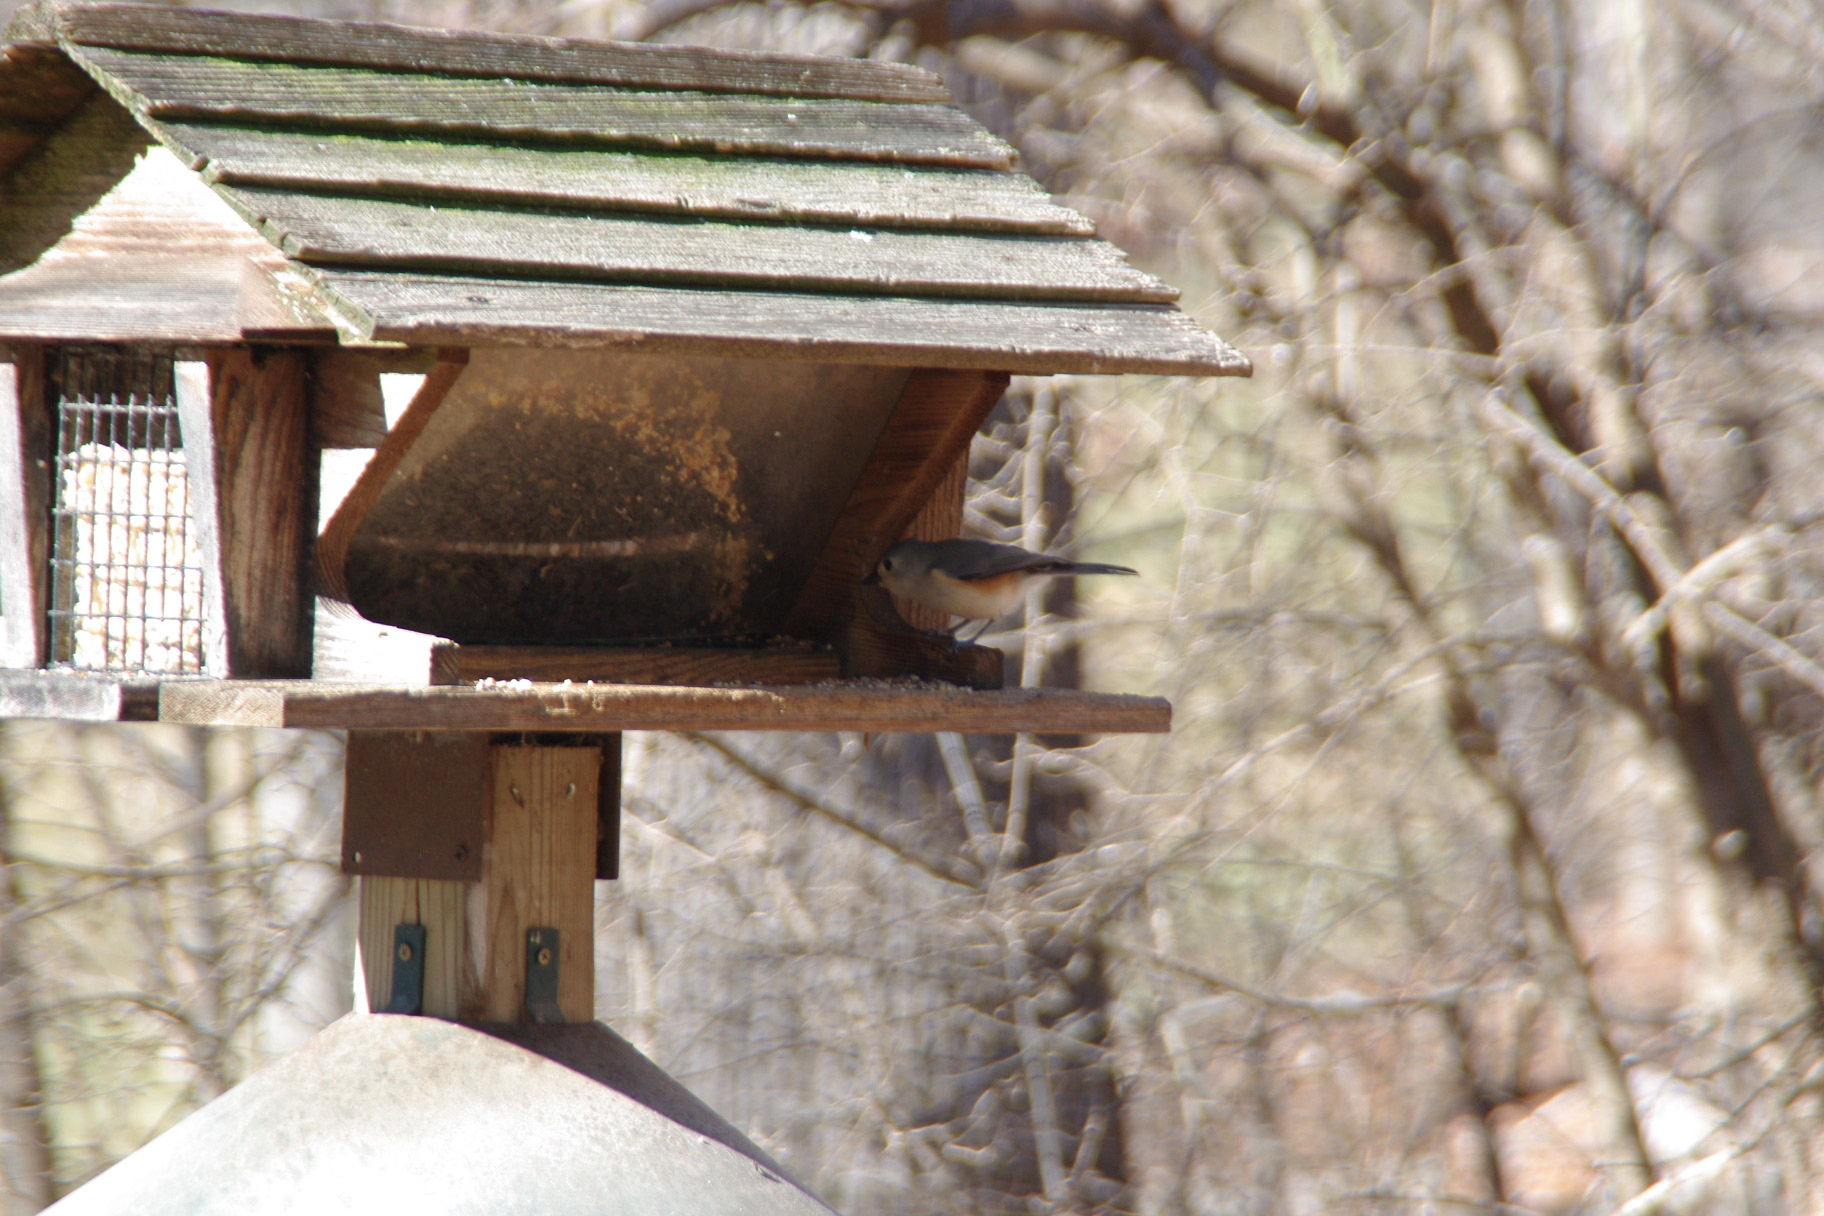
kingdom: Animalia
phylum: Chordata
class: Aves
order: Passeriformes
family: Paridae
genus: Baeolophus
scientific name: Baeolophus bicolor
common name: Tufted titmouse
